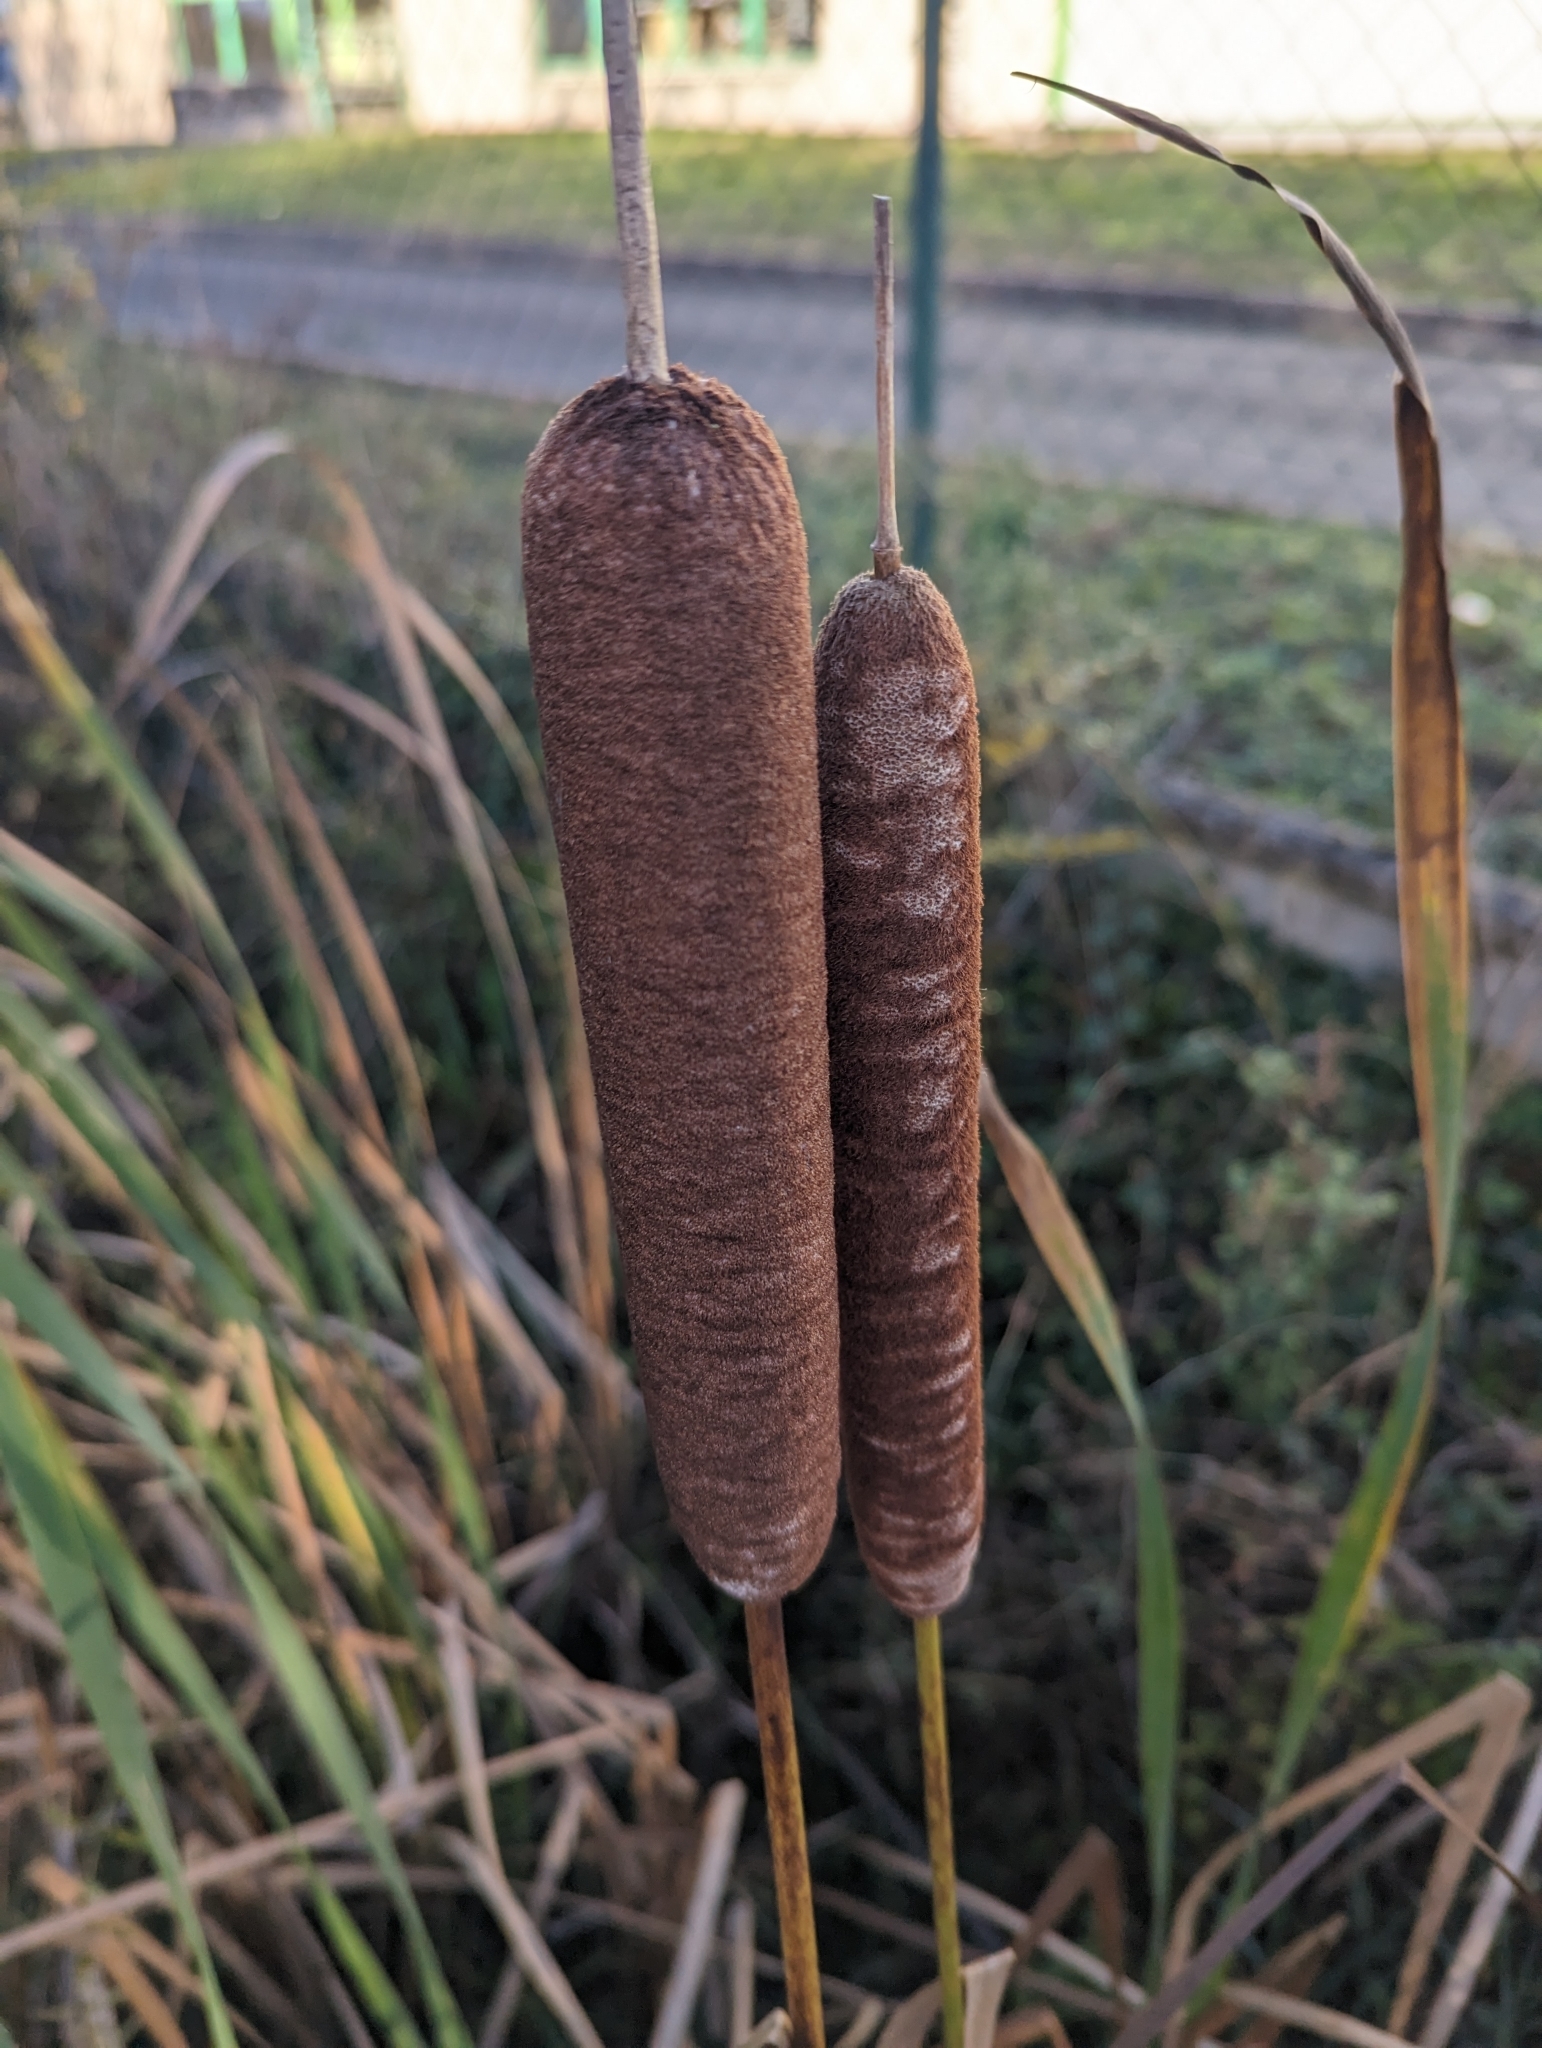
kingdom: Plantae
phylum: Tracheophyta
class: Liliopsida
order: Poales
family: Typhaceae
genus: Typha
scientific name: Typha latifolia
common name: Broadleaf cattail
